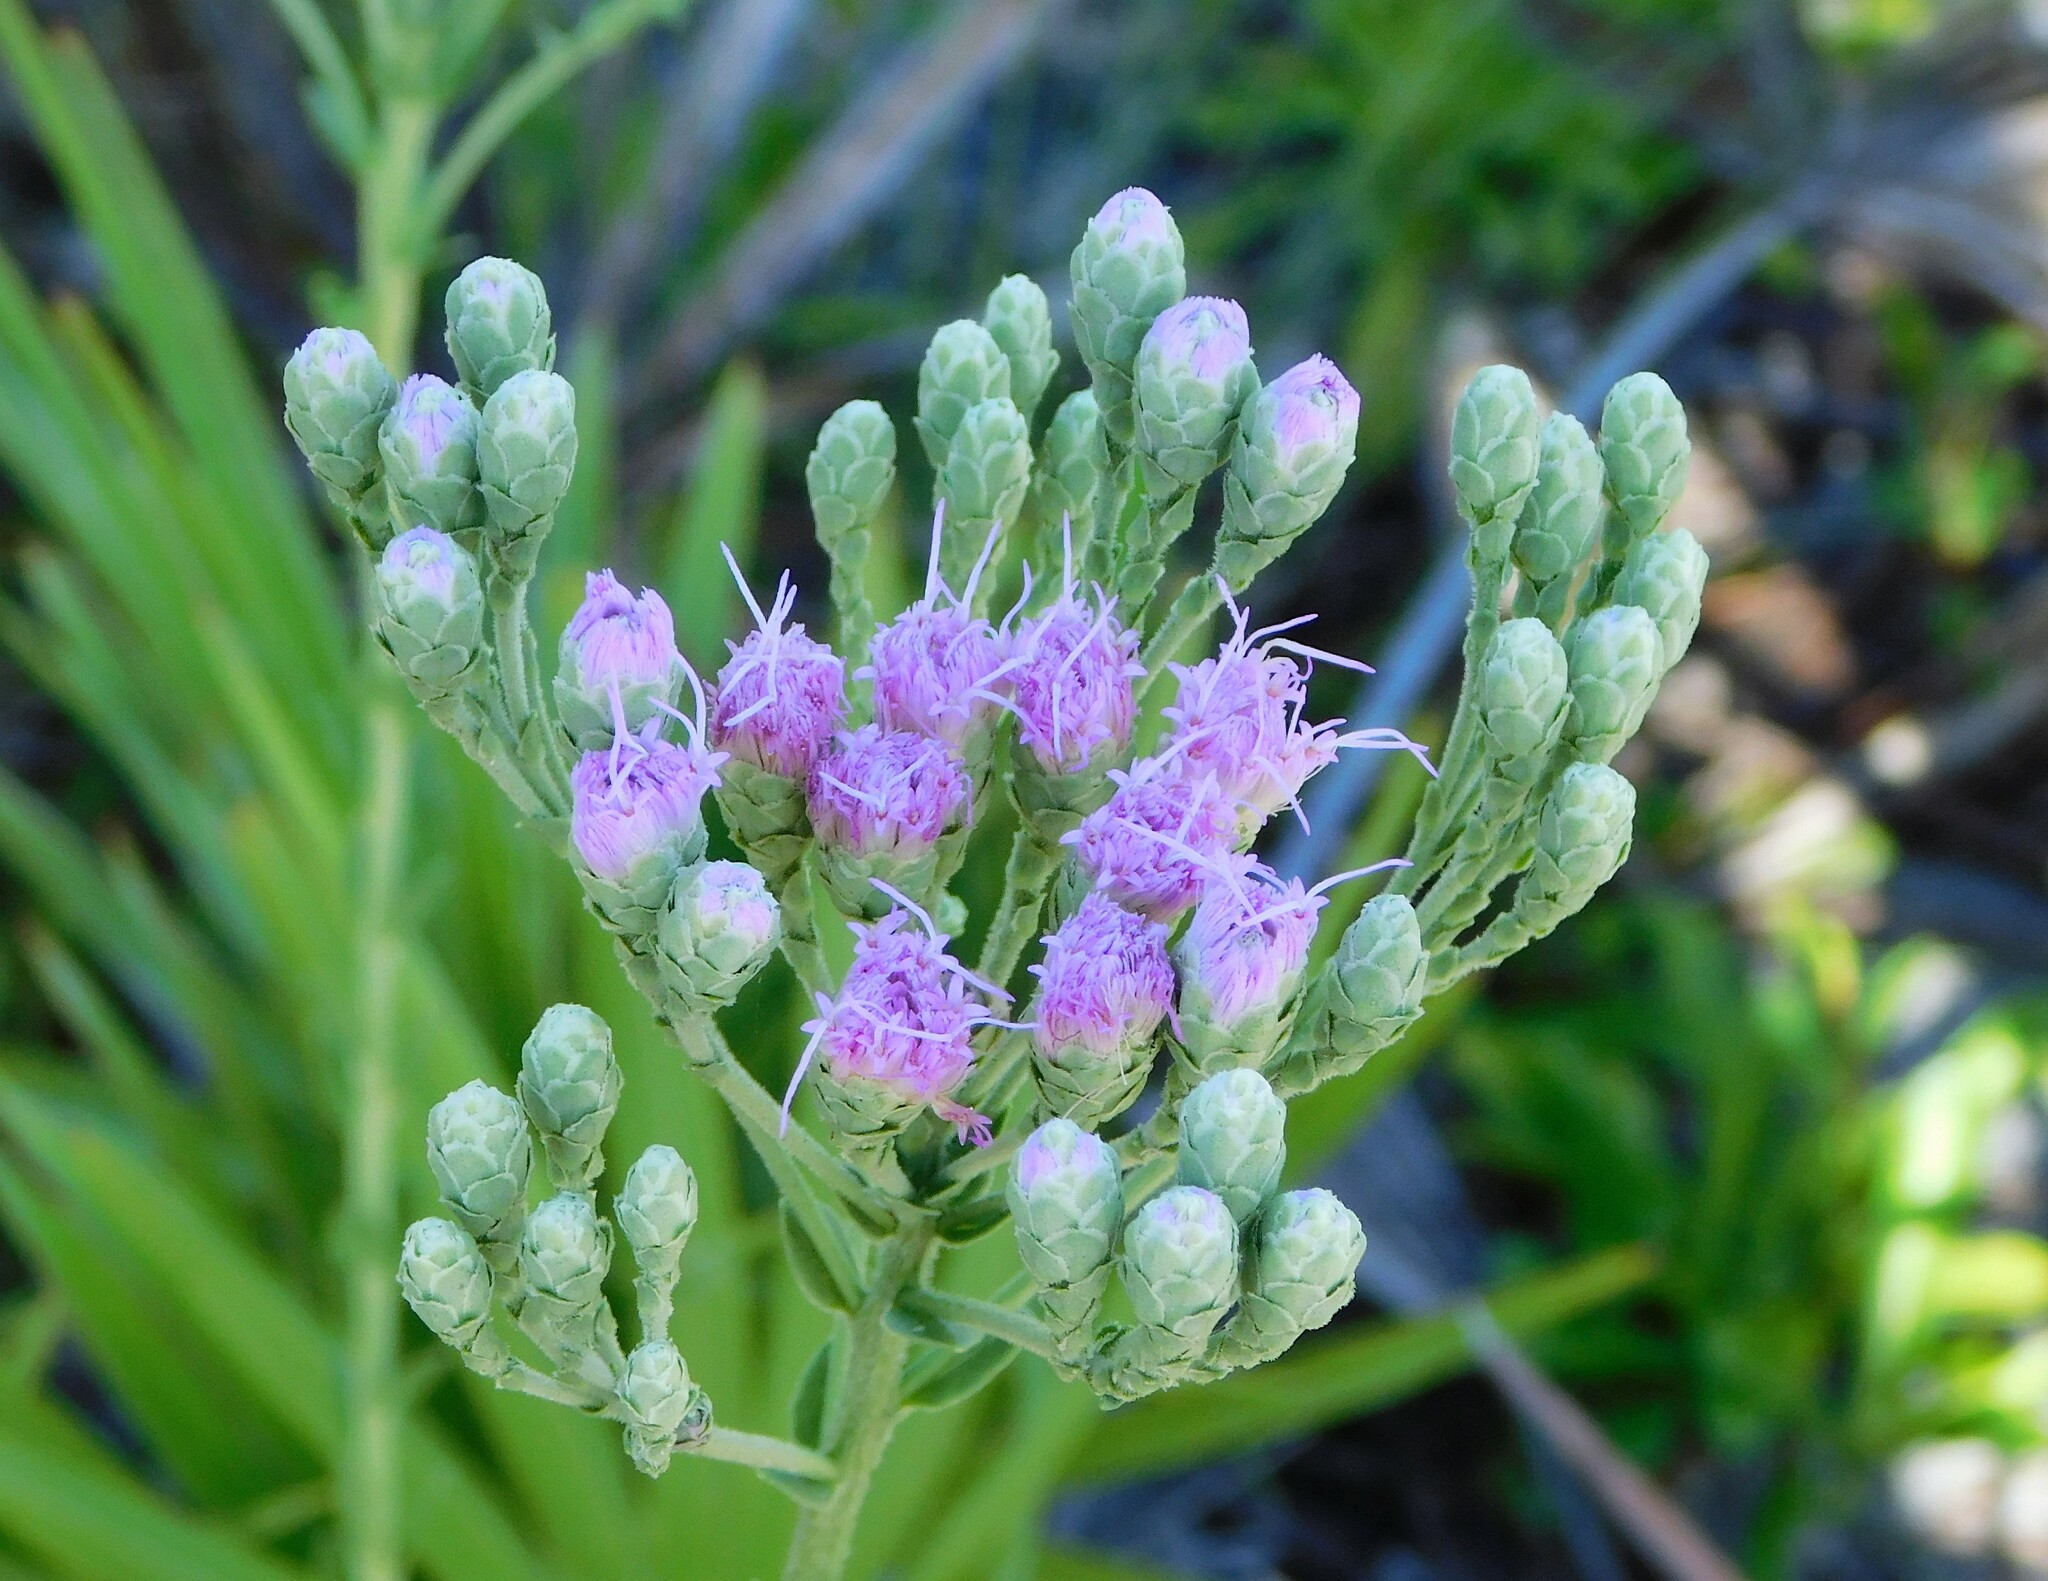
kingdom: Plantae
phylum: Tracheophyta
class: Magnoliopsida
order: Asterales
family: Asteraceae
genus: Carphephorus
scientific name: Carphephorus corymbosus
